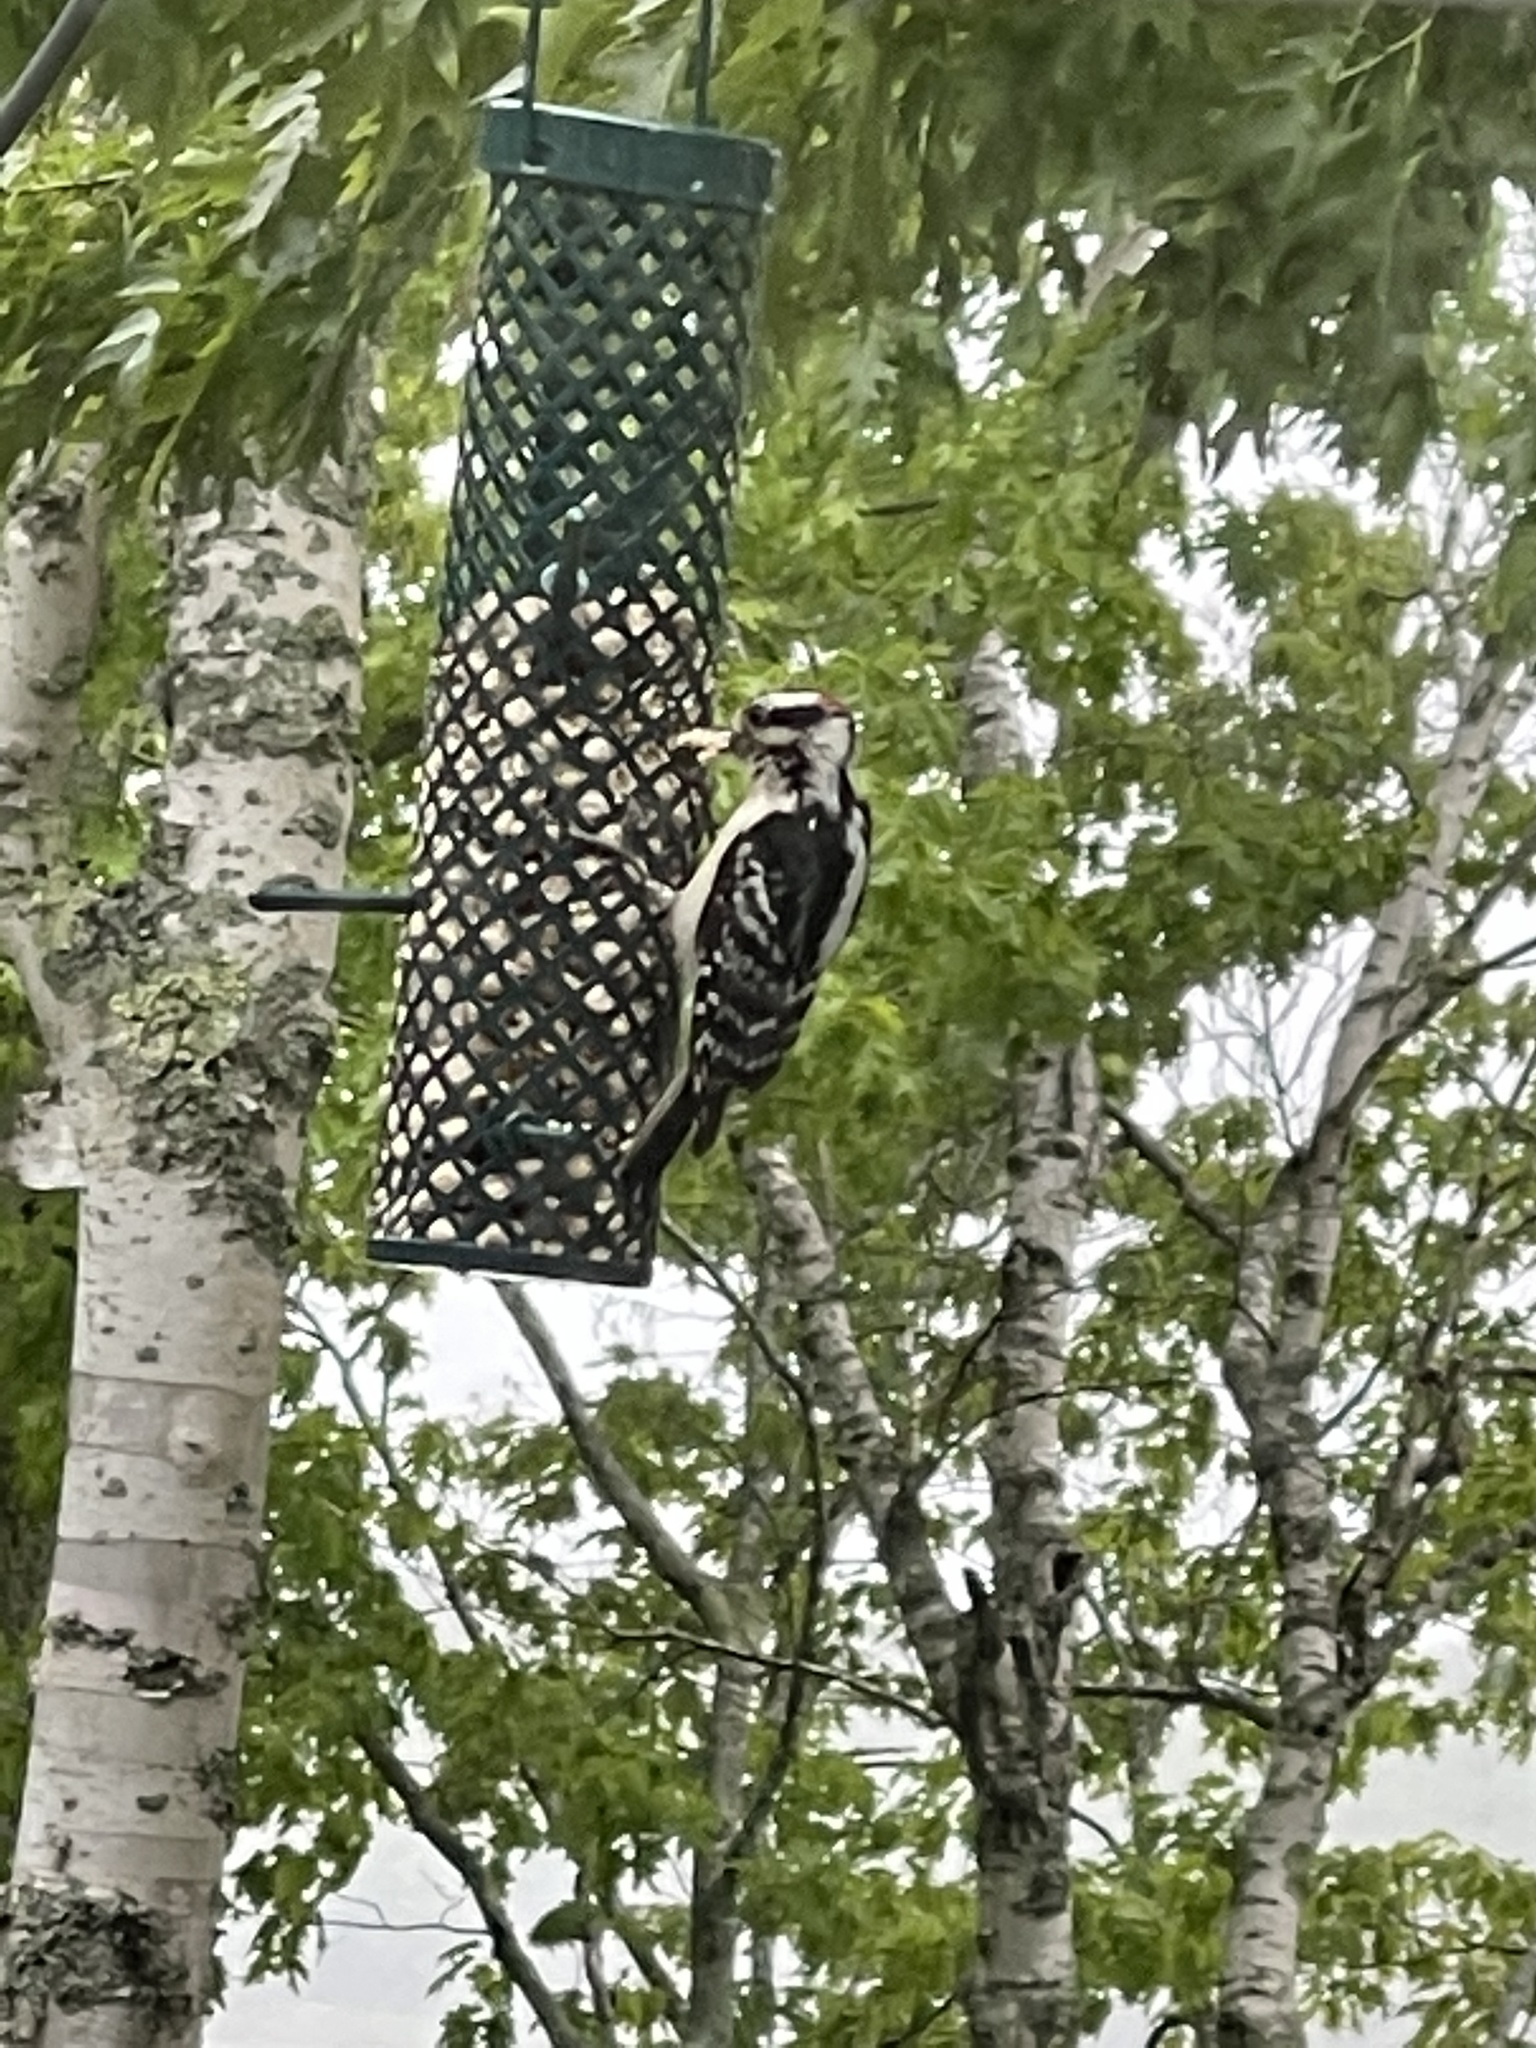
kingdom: Animalia
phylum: Chordata
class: Aves
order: Piciformes
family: Picidae
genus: Leuconotopicus
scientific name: Leuconotopicus villosus
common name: Hairy woodpecker
